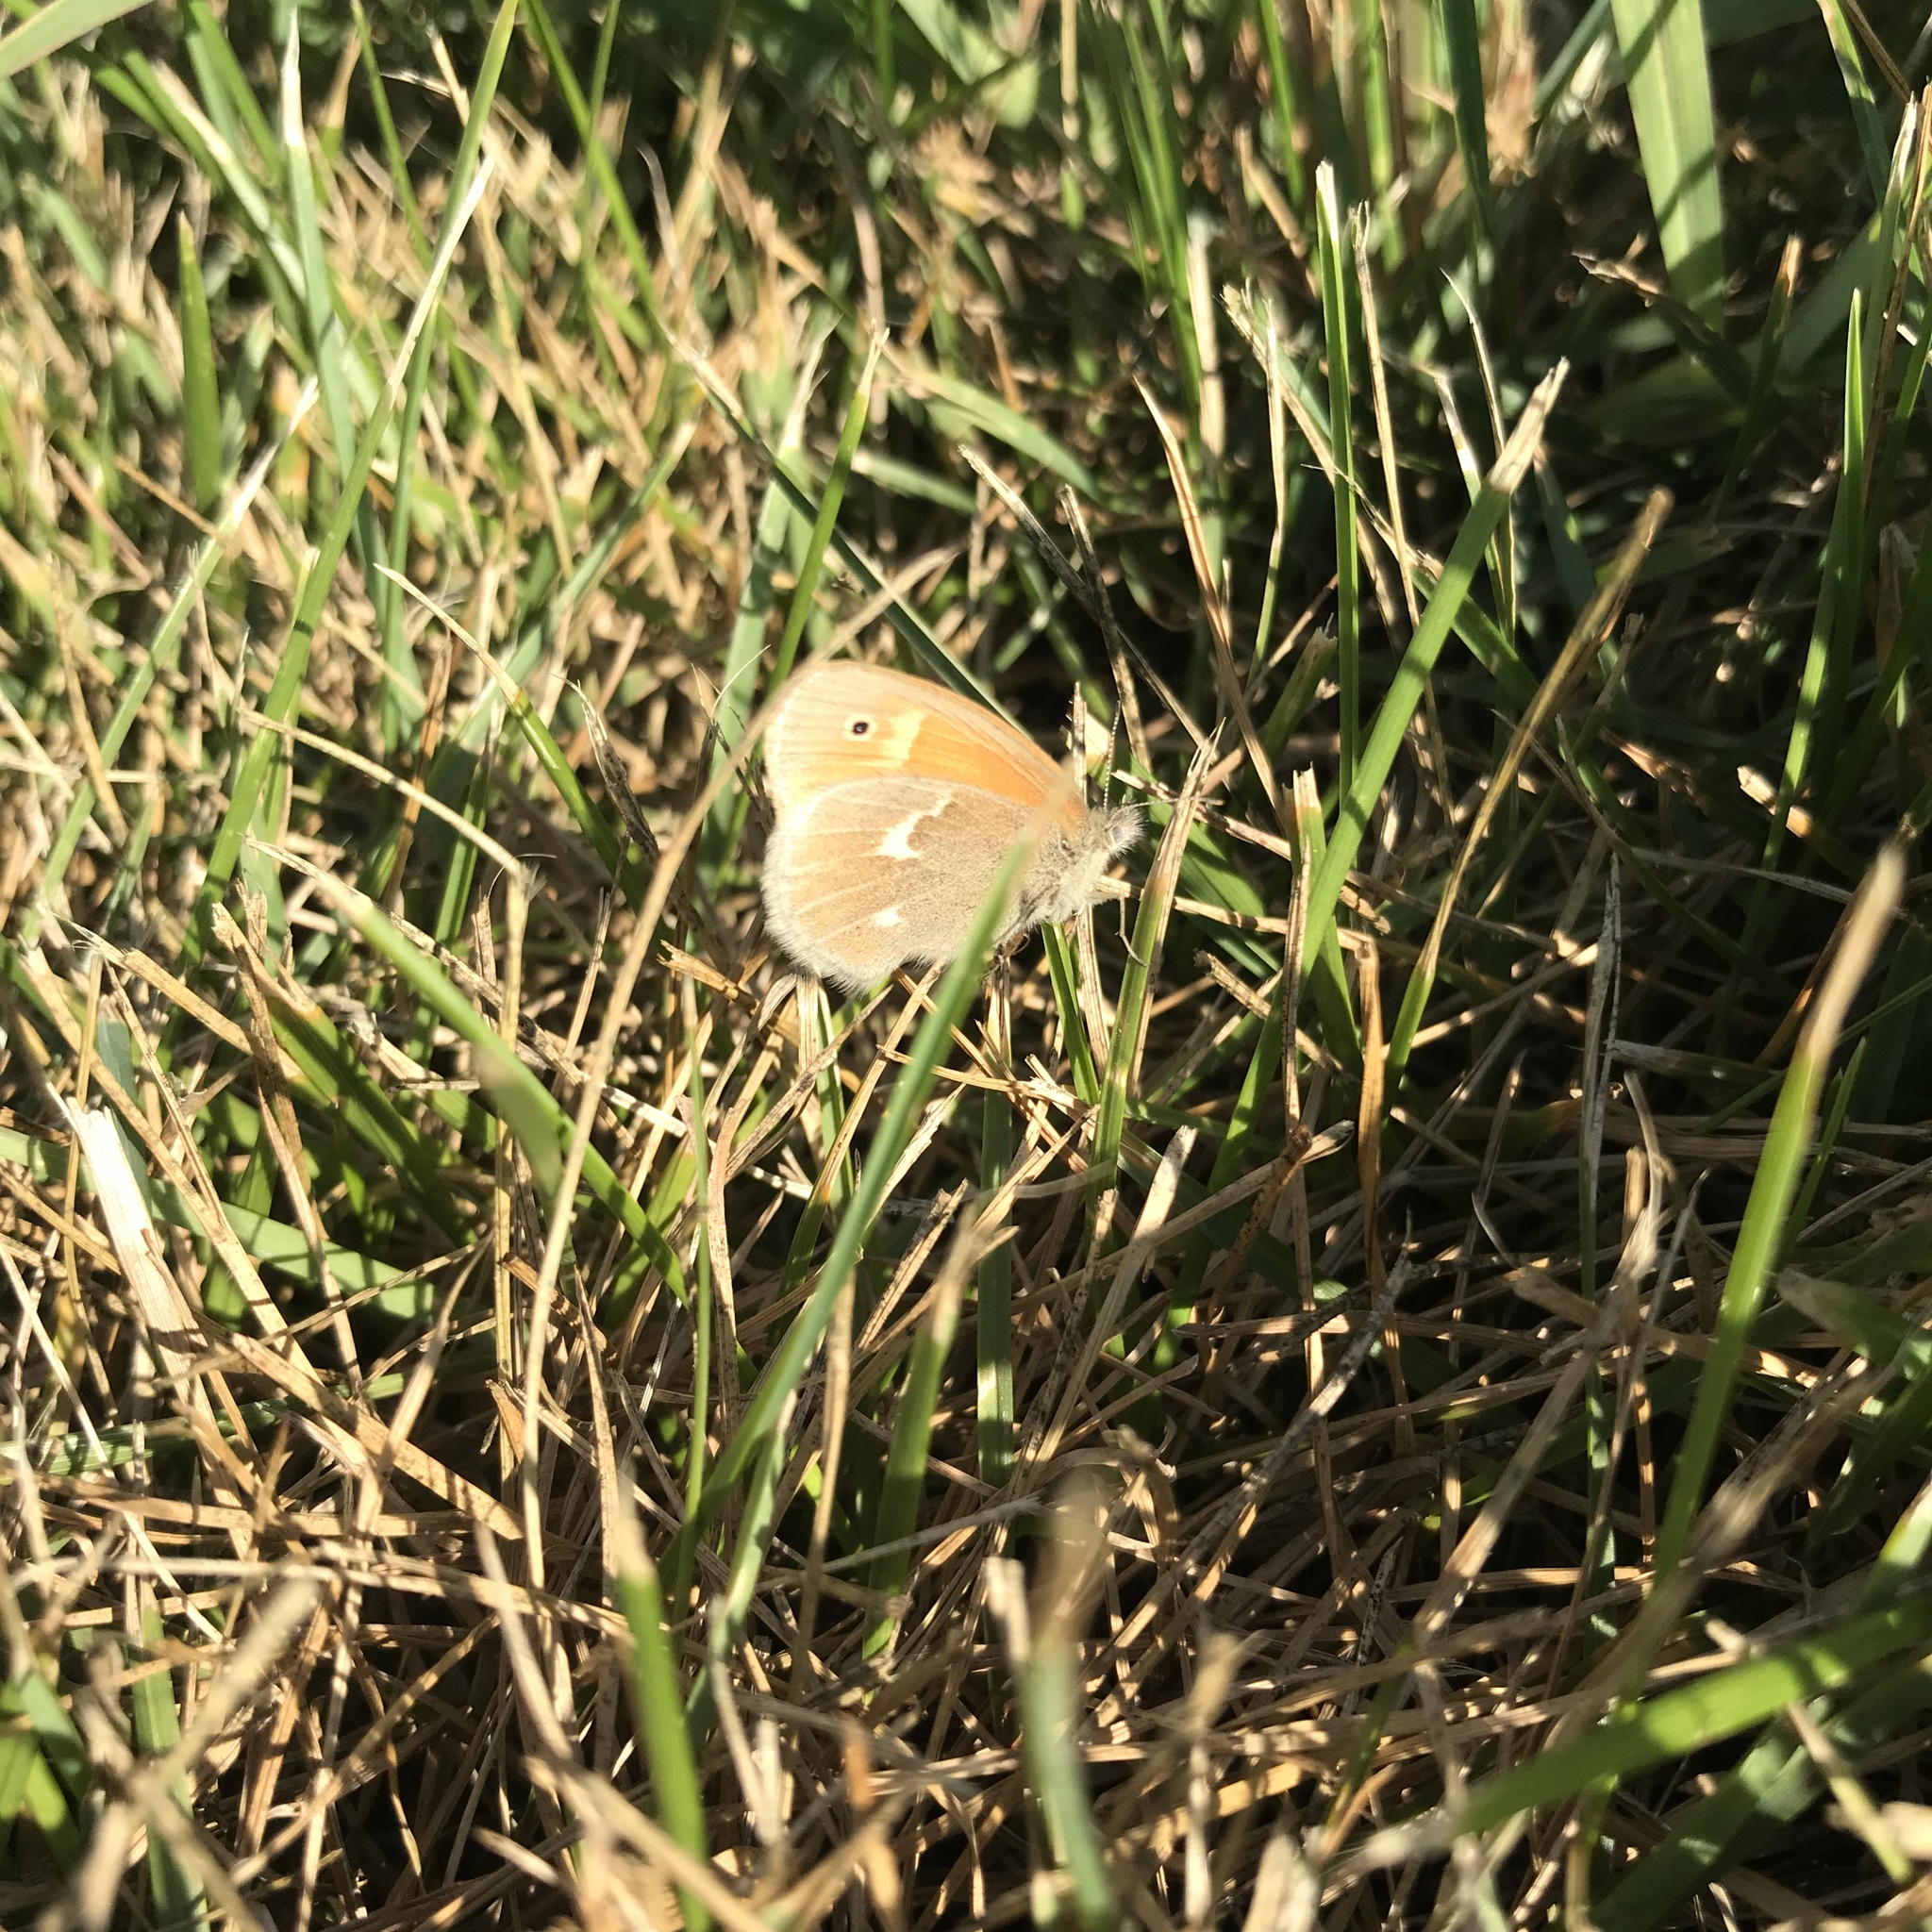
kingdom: Animalia
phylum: Arthropoda
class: Insecta
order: Lepidoptera
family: Nymphalidae
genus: Coenonympha
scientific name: Coenonympha california
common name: Common ringlet
